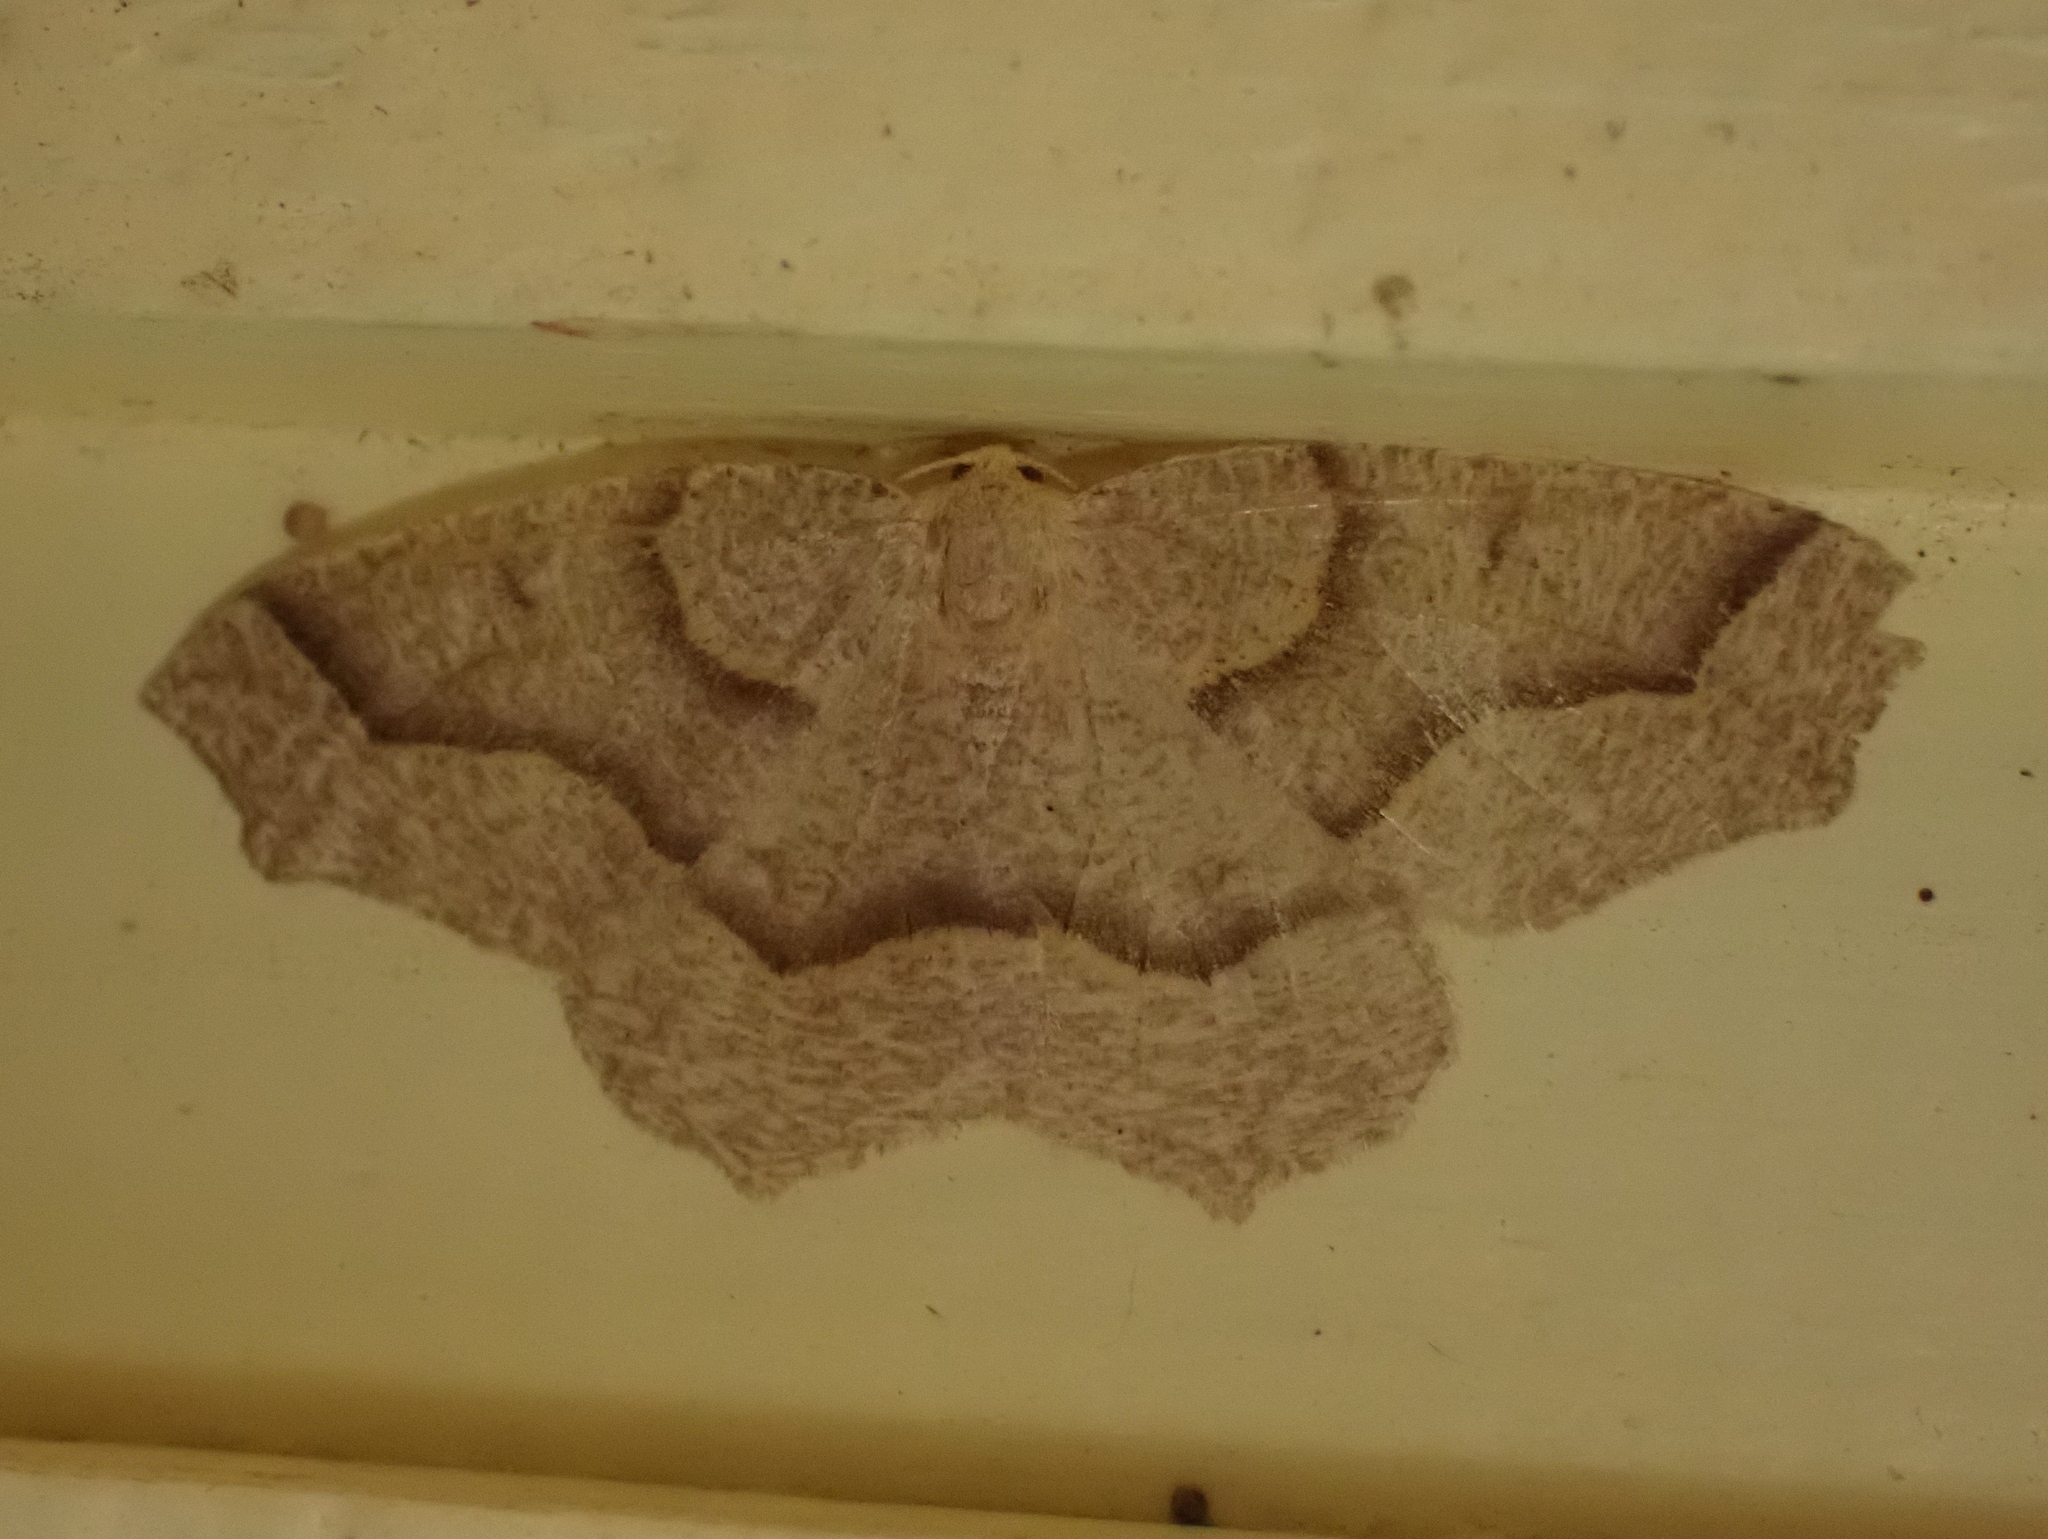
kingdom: Animalia
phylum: Arthropoda
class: Insecta
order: Lepidoptera
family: Geometridae
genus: Lambdina
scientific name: Lambdina fiscellaria
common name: Hemlock looper
